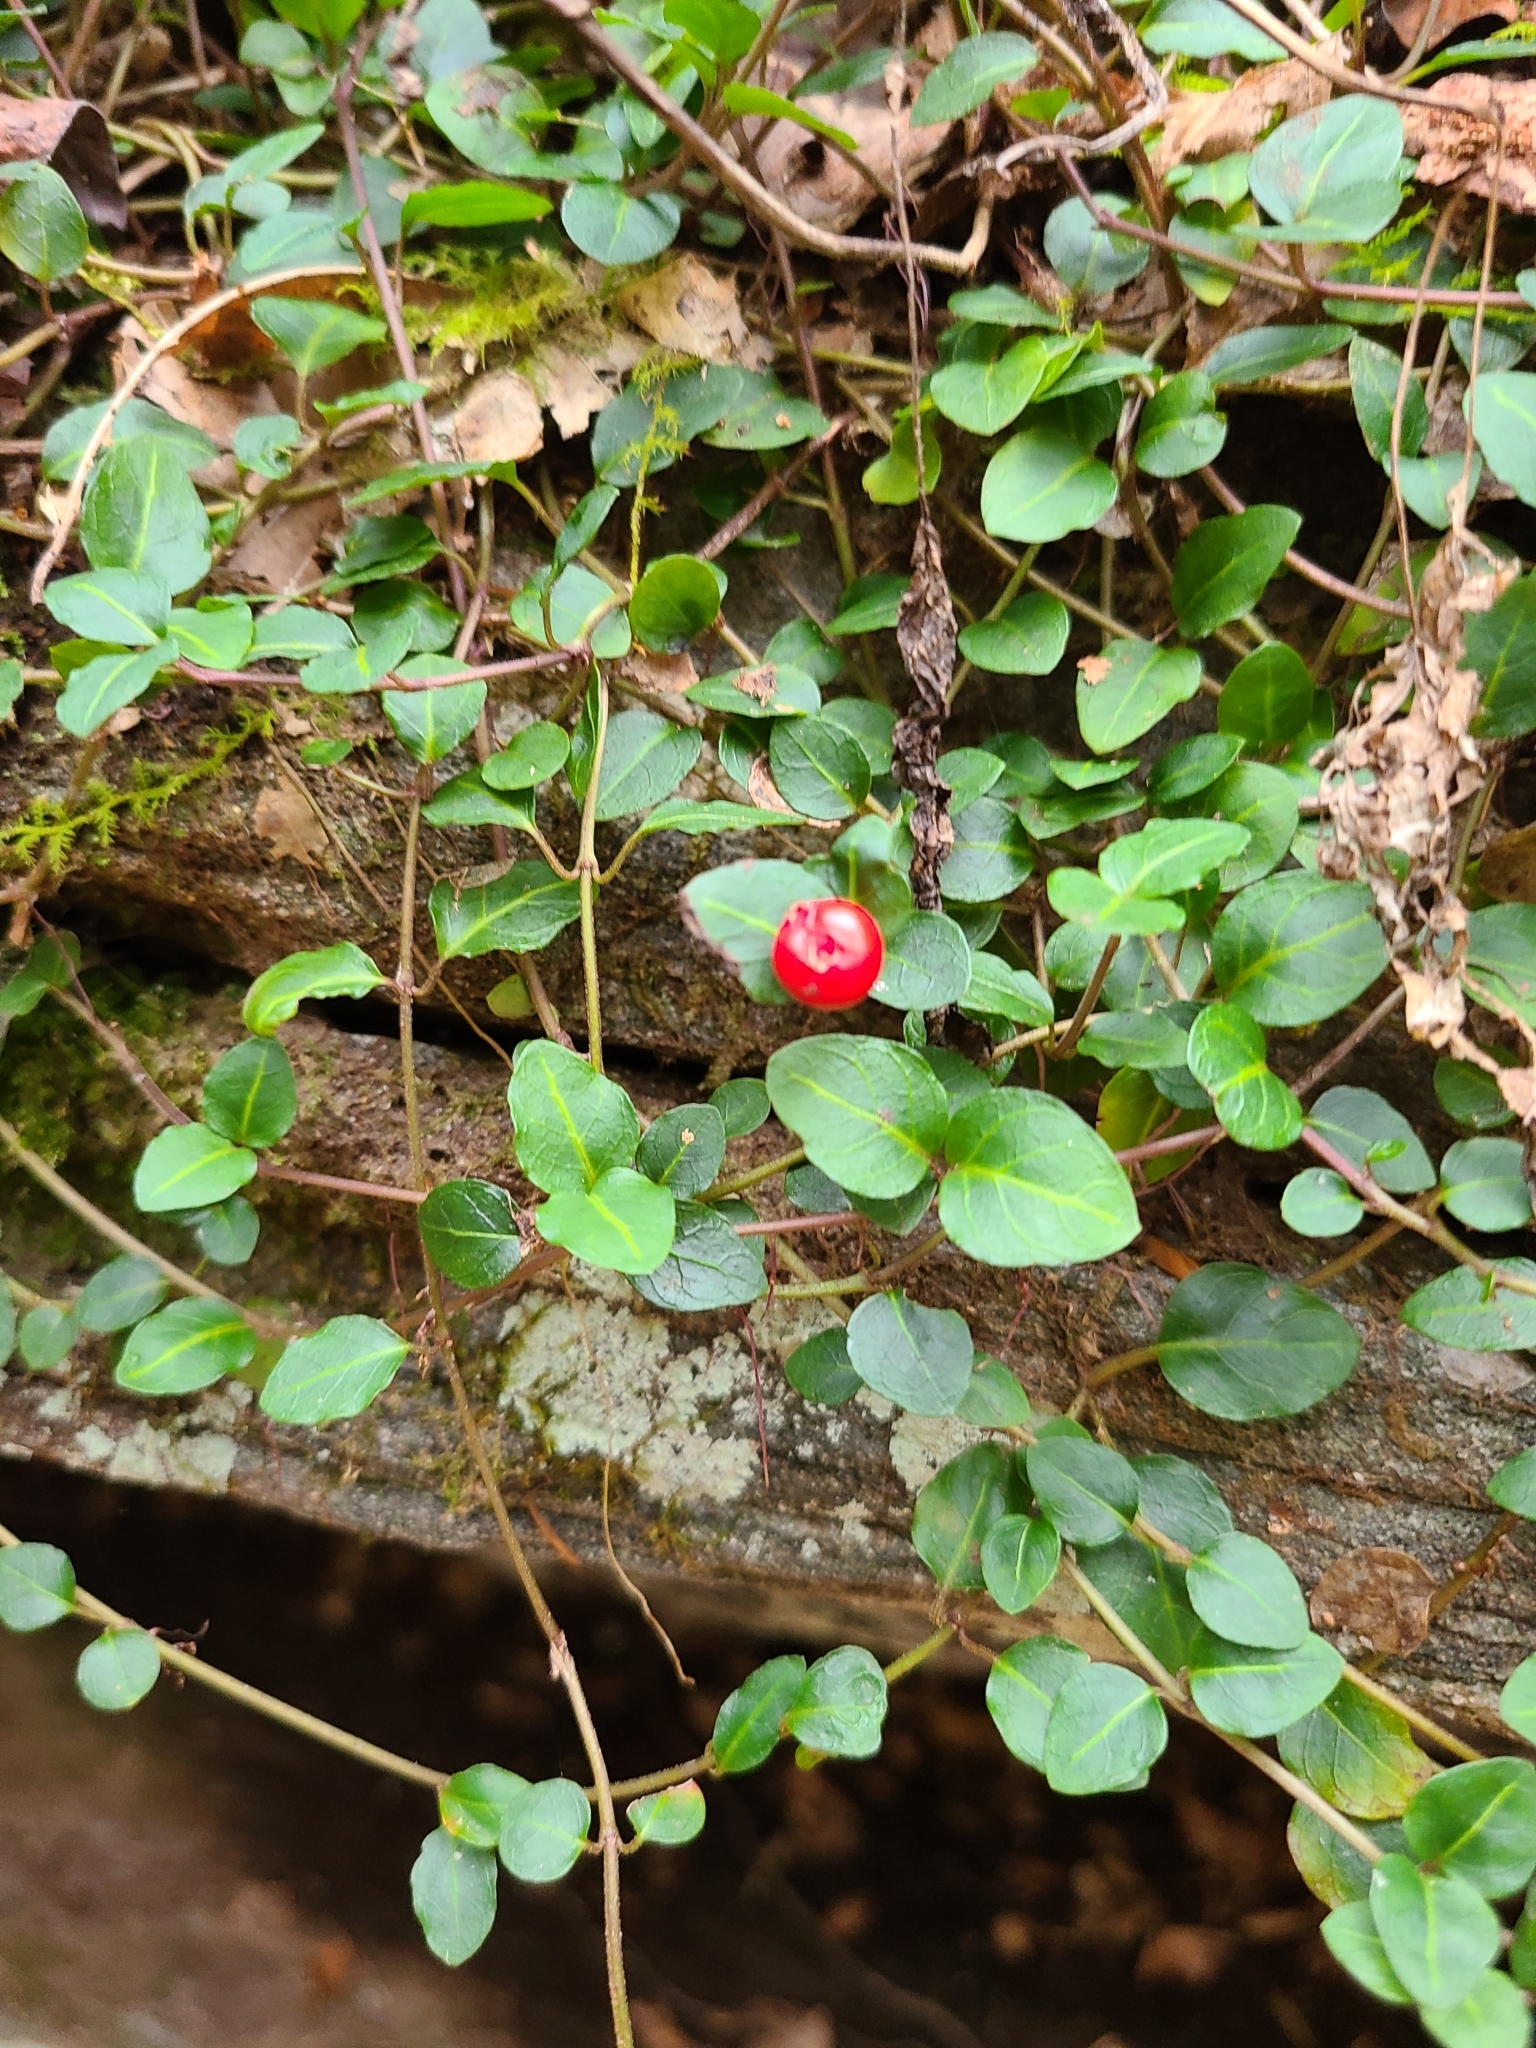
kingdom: Plantae
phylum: Tracheophyta
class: Magnoliopsida
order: Gentianales
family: Rubiaceae
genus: Mitchella
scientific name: Mitchella repens
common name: Partridge-berry
